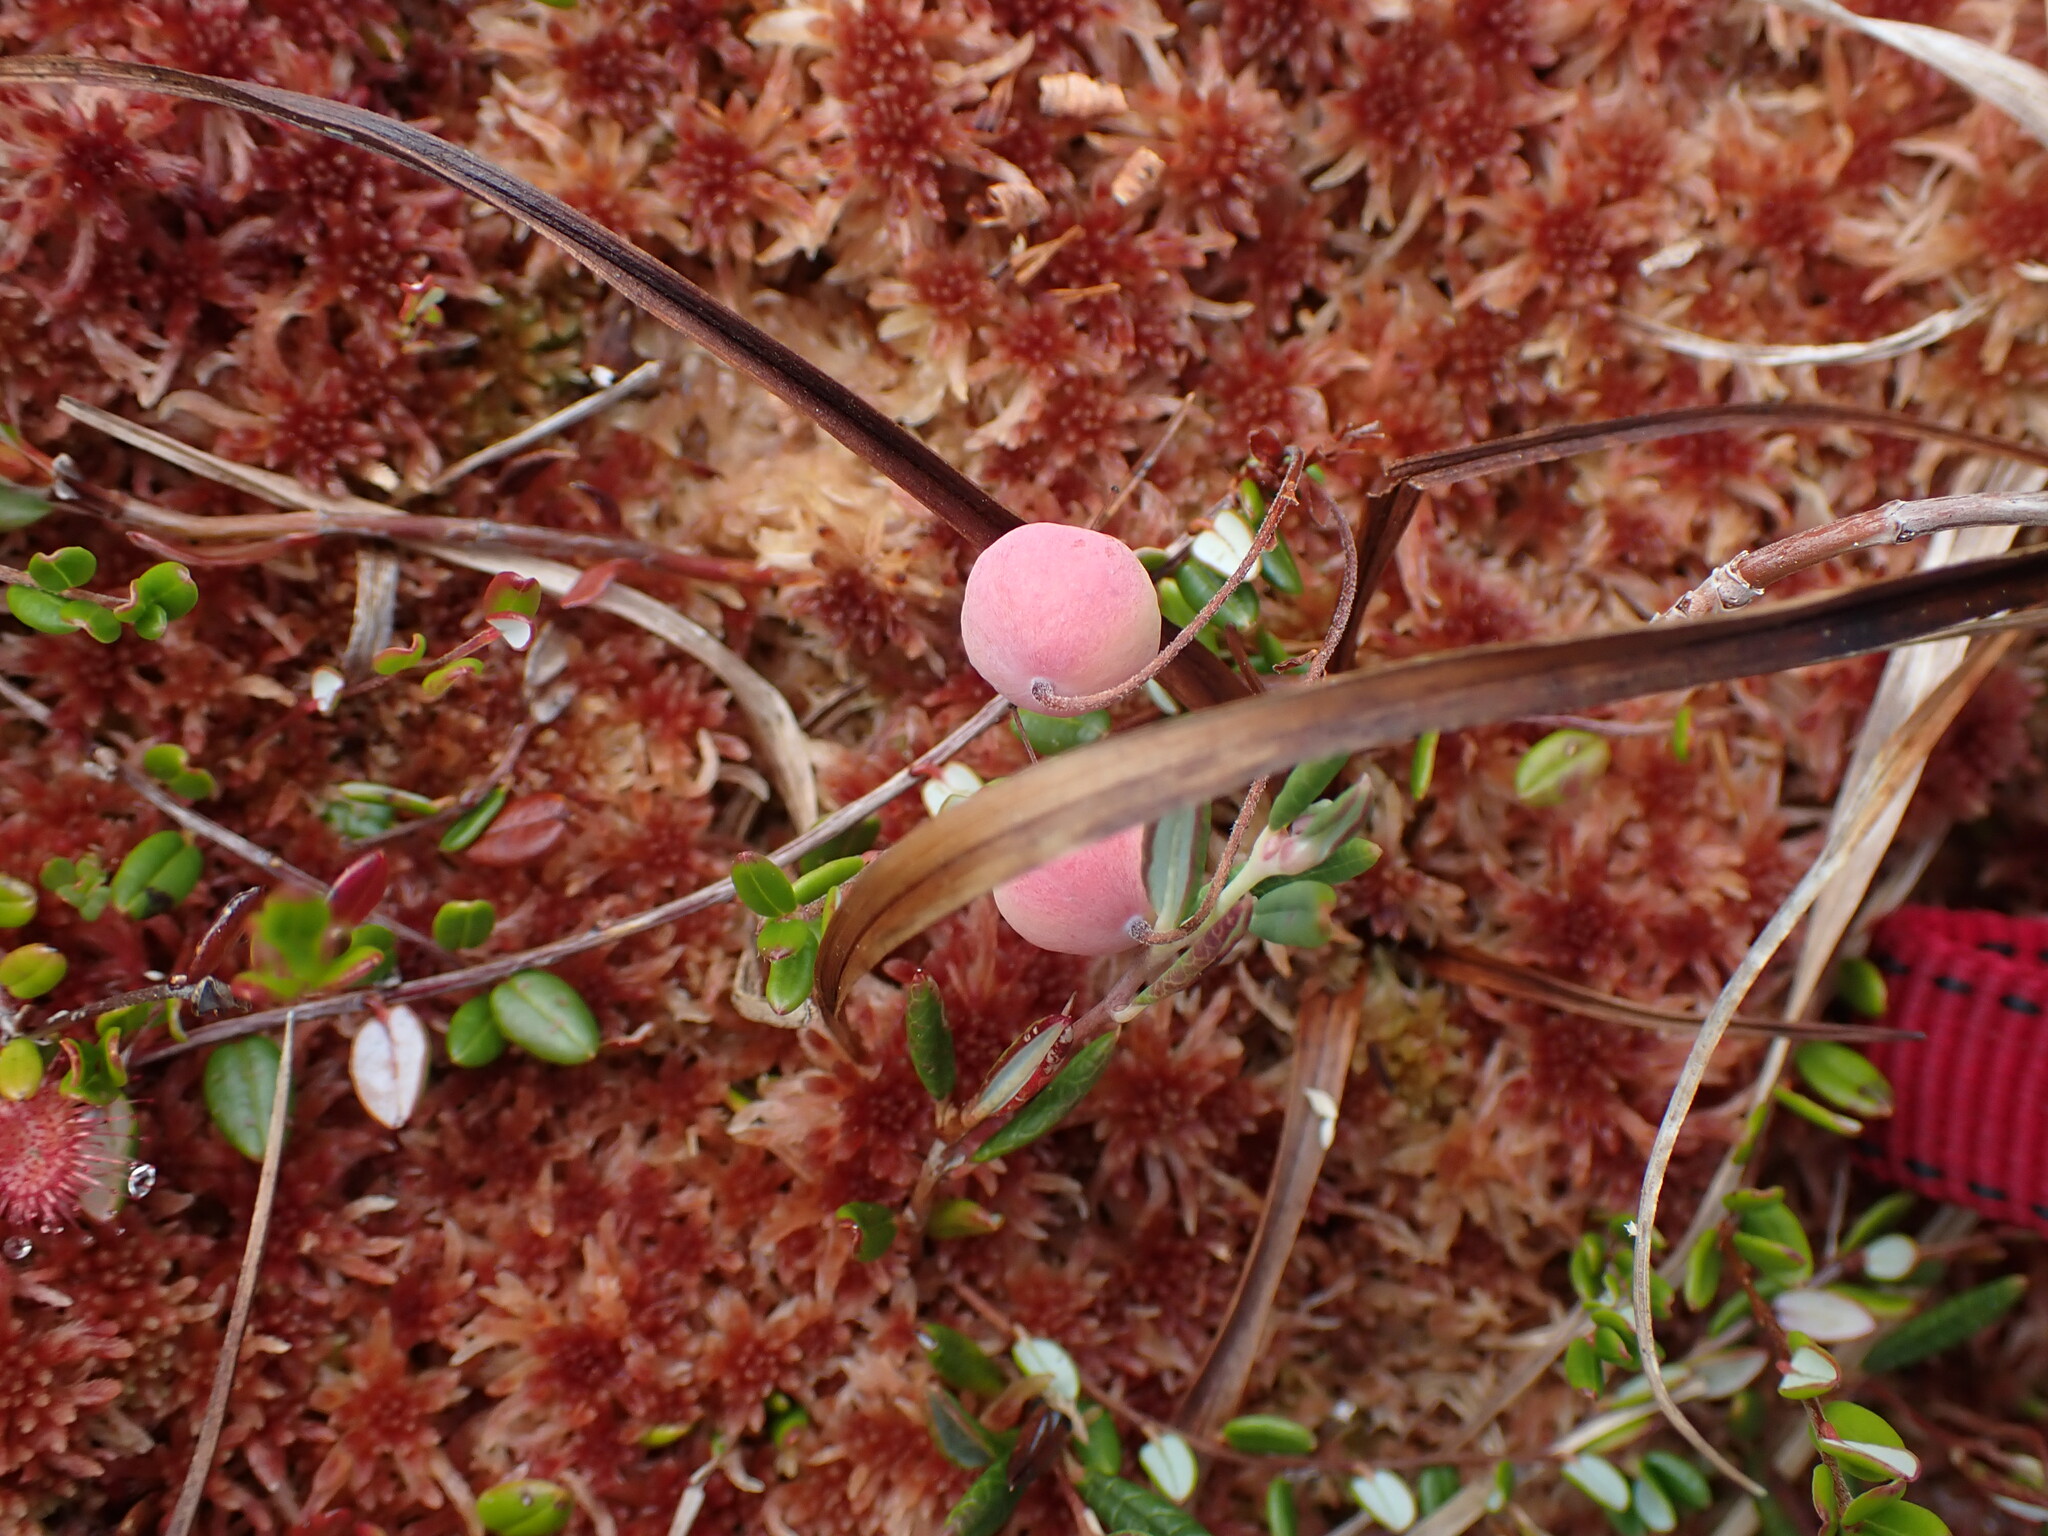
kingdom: Plantae
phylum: Tracheophyta
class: Magnoliopsida
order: Ericales
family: Ericaceae
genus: Vaccinium
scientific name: Vaccinium oxycoccos
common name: Cranberry
